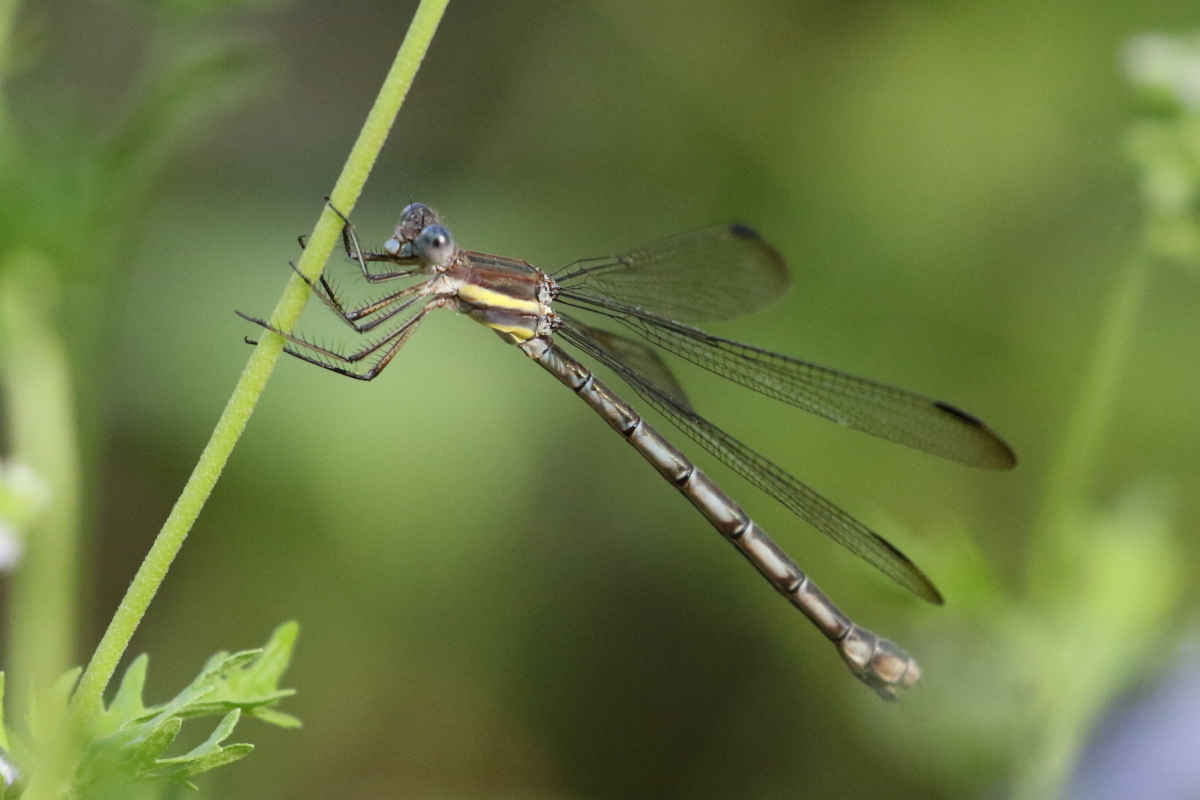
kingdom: Animalia
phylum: Arthropoda
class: Insecta
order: Odonata
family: Lestidae
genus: Archilestes
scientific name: Archilestes grandis
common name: Great spreadwing
